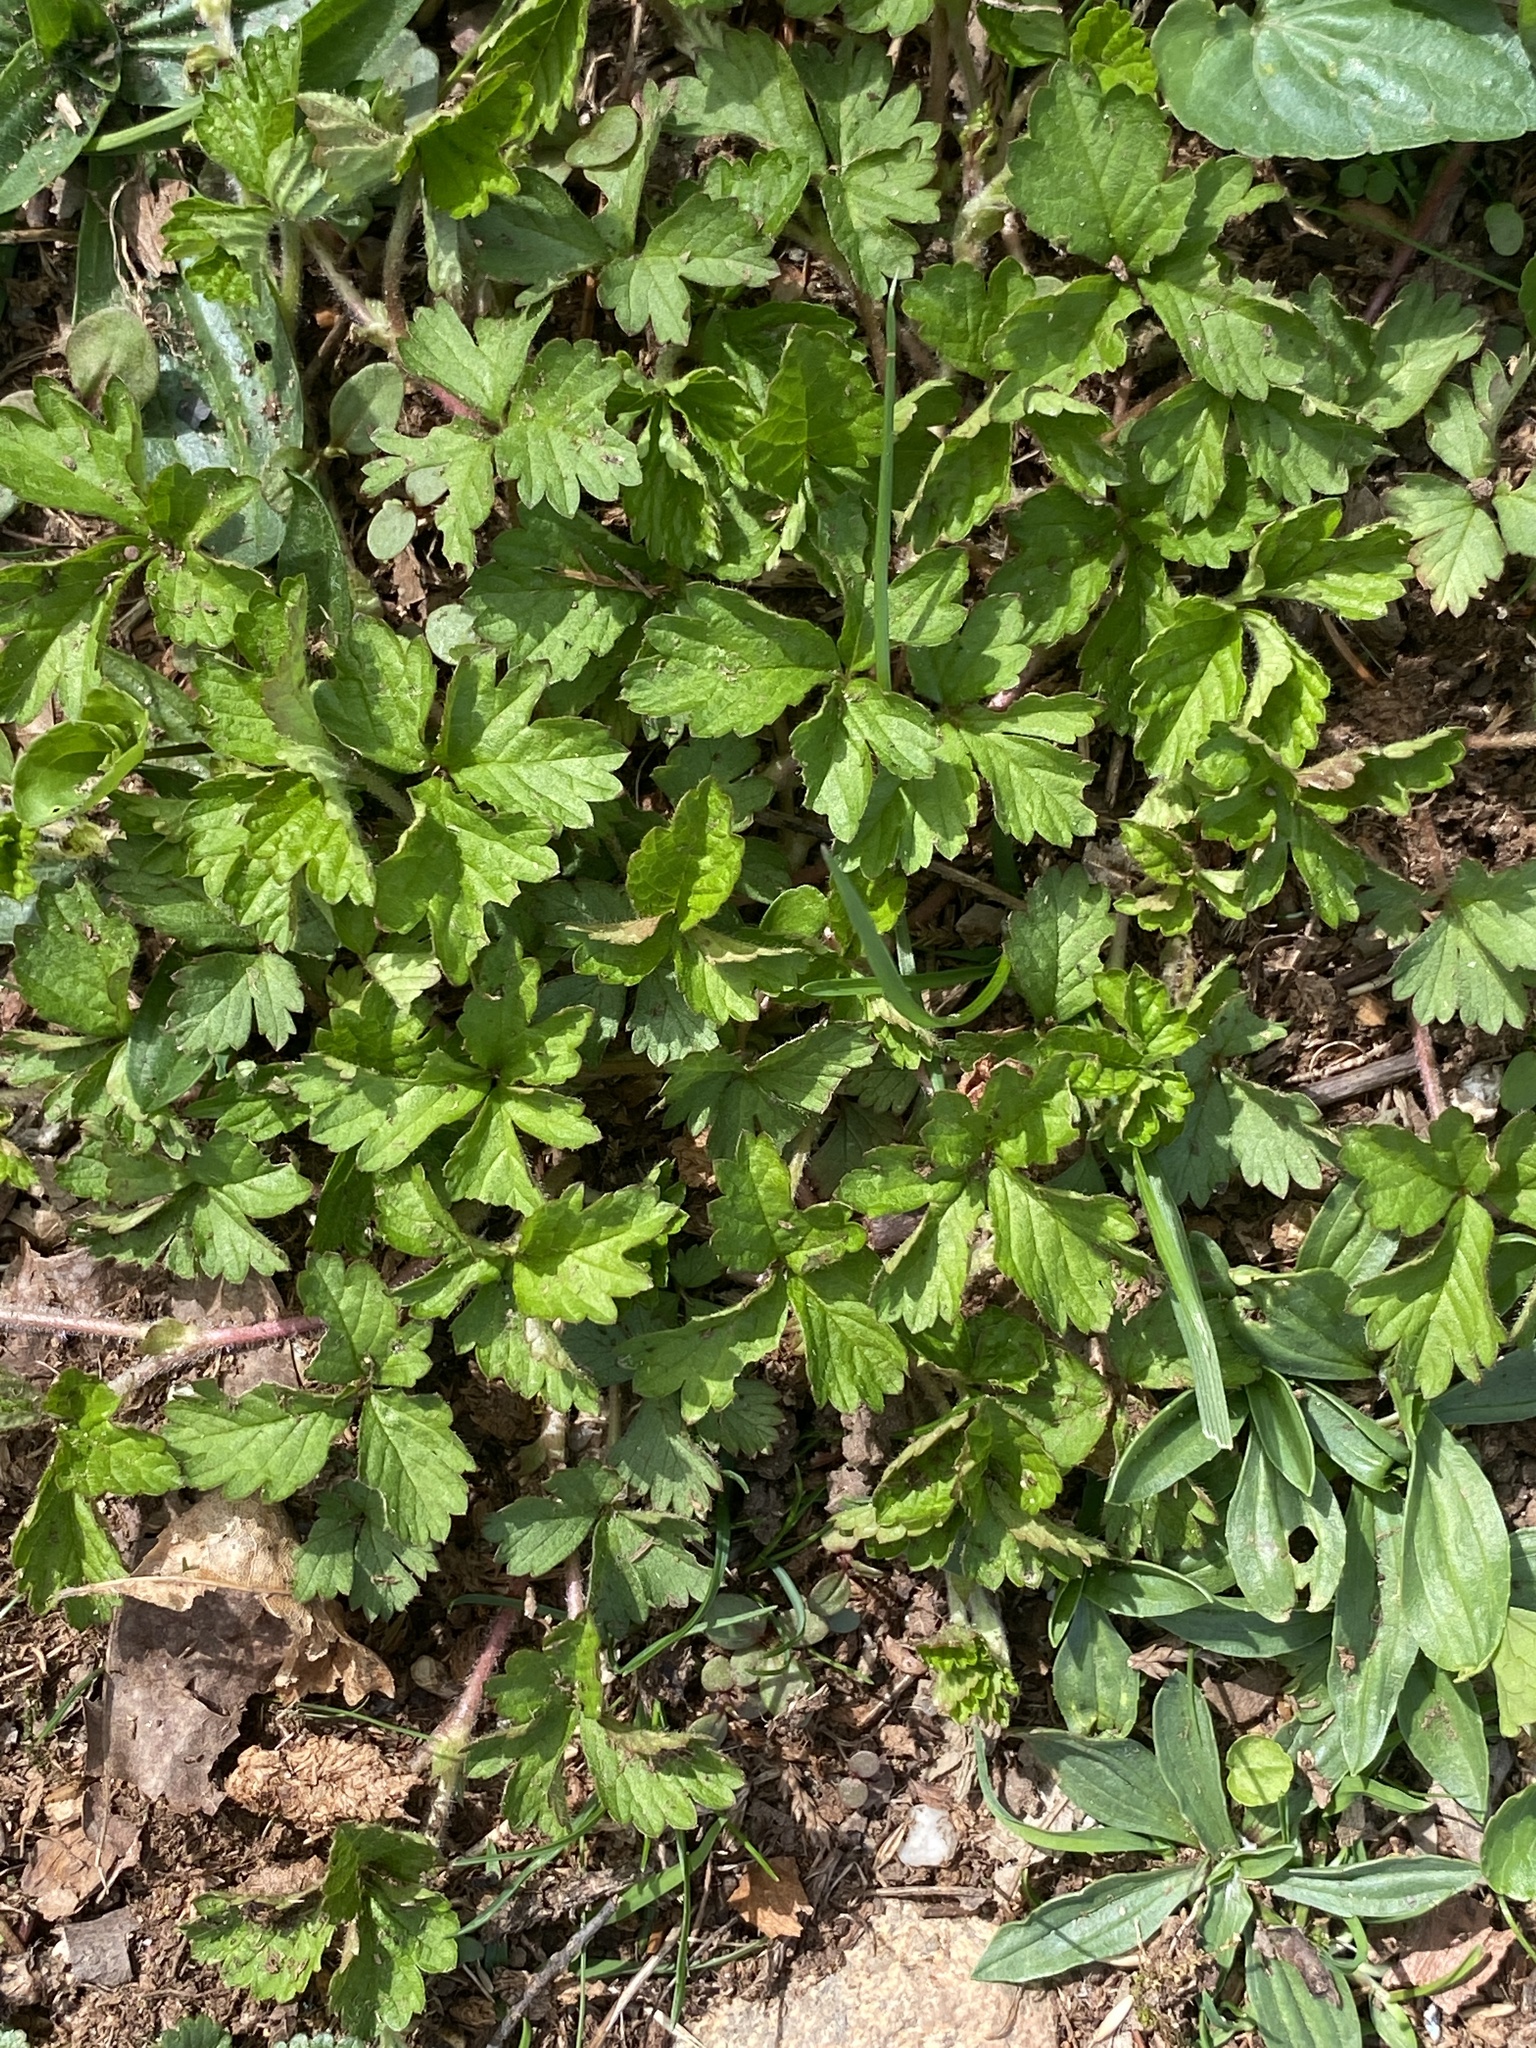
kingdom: Plantae
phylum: Tracheophyta
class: Magnoliopsida
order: Rosales
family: Rosaceae
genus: Potentilla
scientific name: Potentilla indica
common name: Yellow-flowered strawberry
